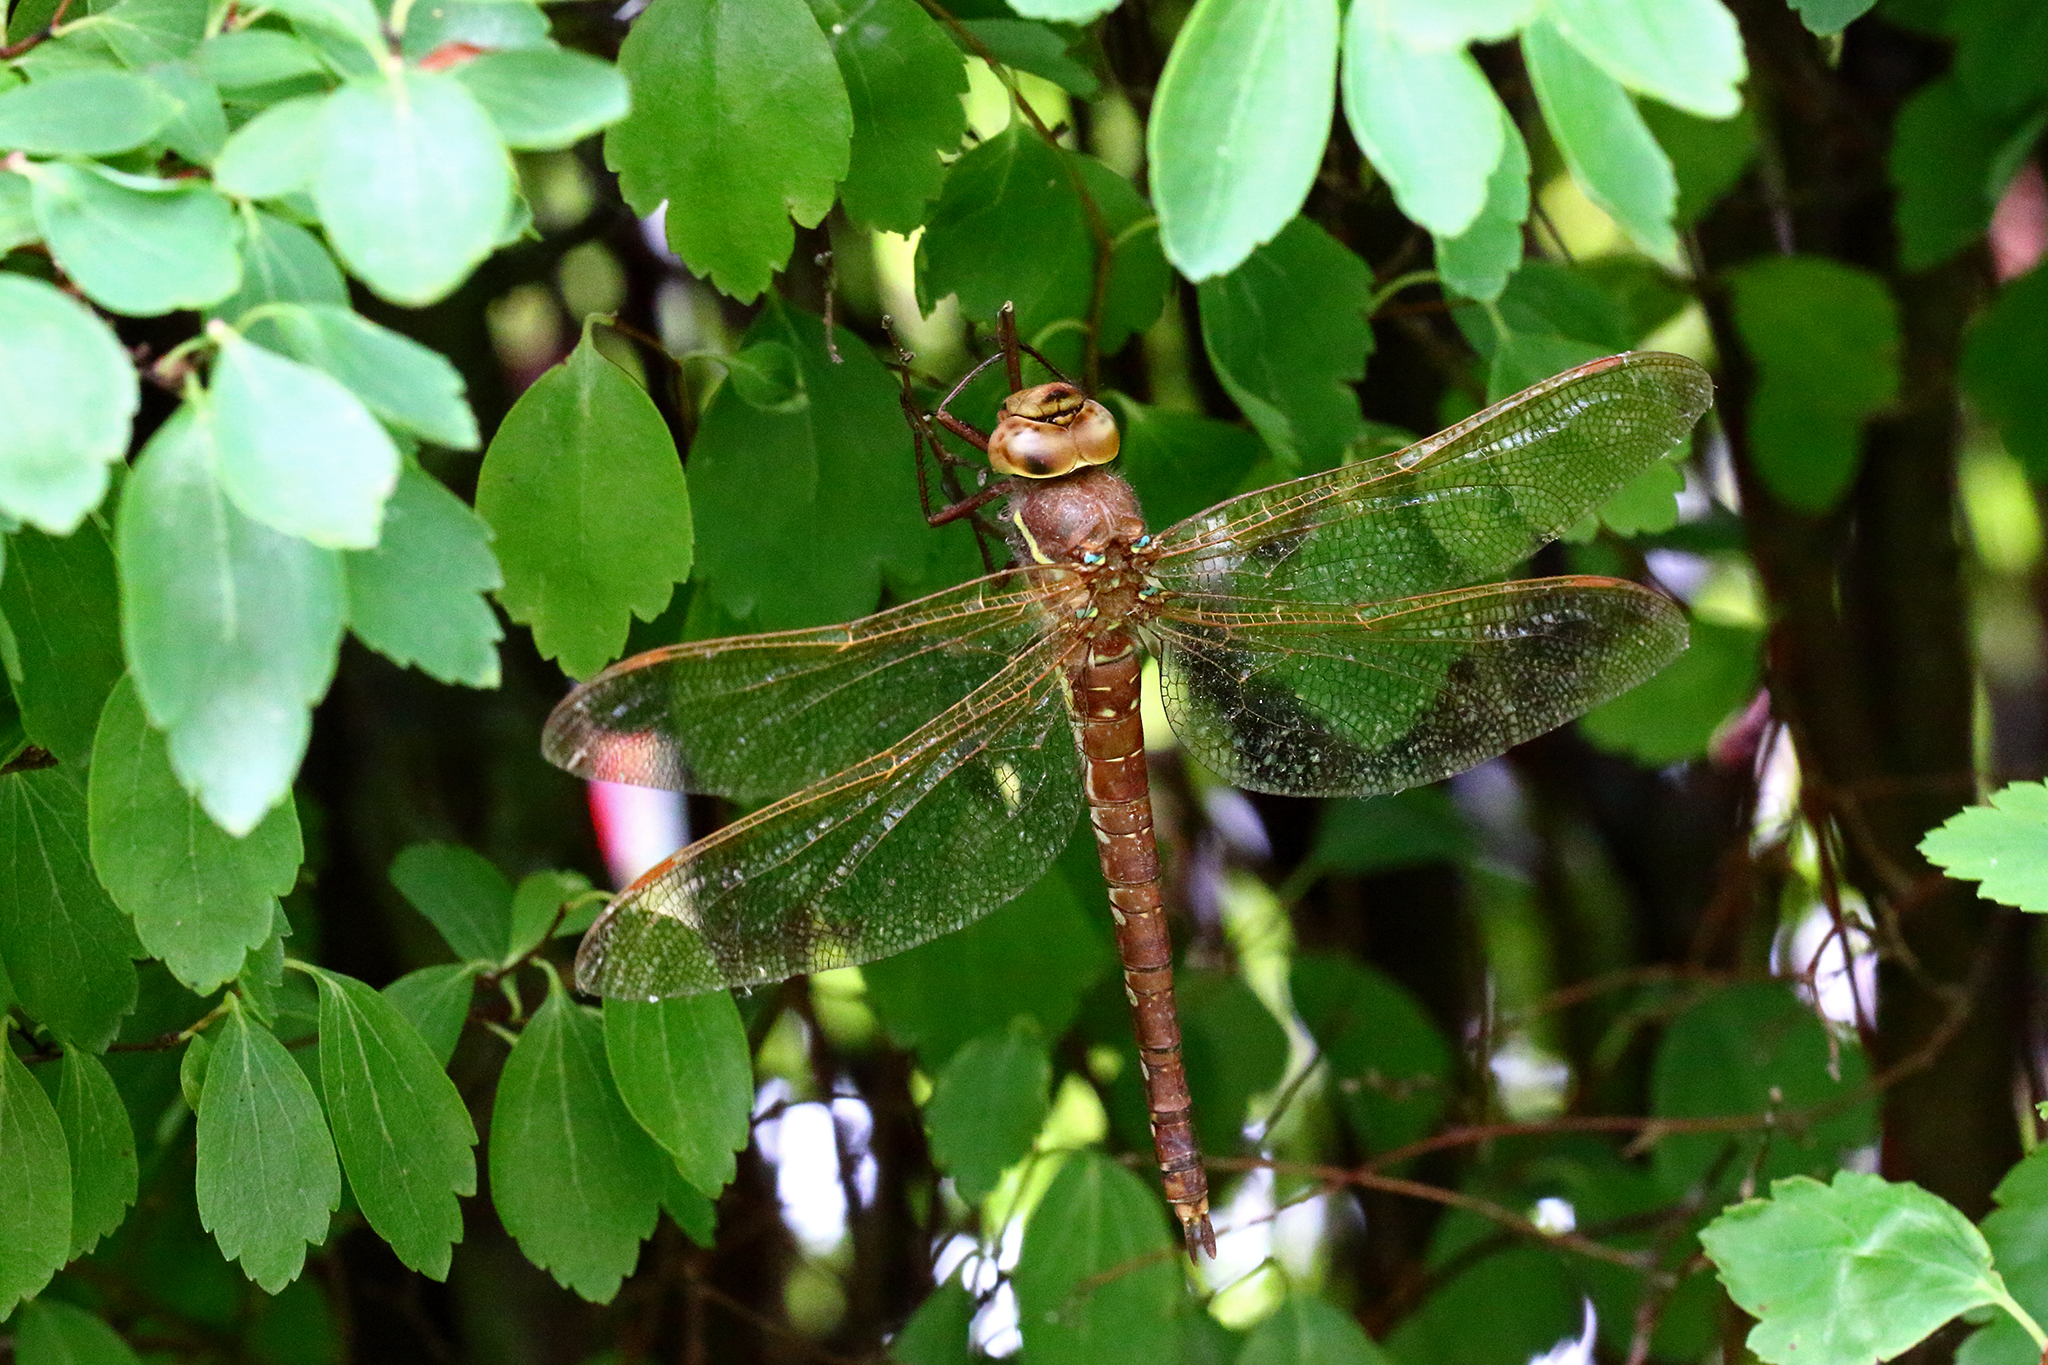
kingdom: Animalia
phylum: Arthropoda
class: Insecta
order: Odonata
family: Aeshnidae
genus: Aeshna
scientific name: Aeshna grandis
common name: Brown hawker
